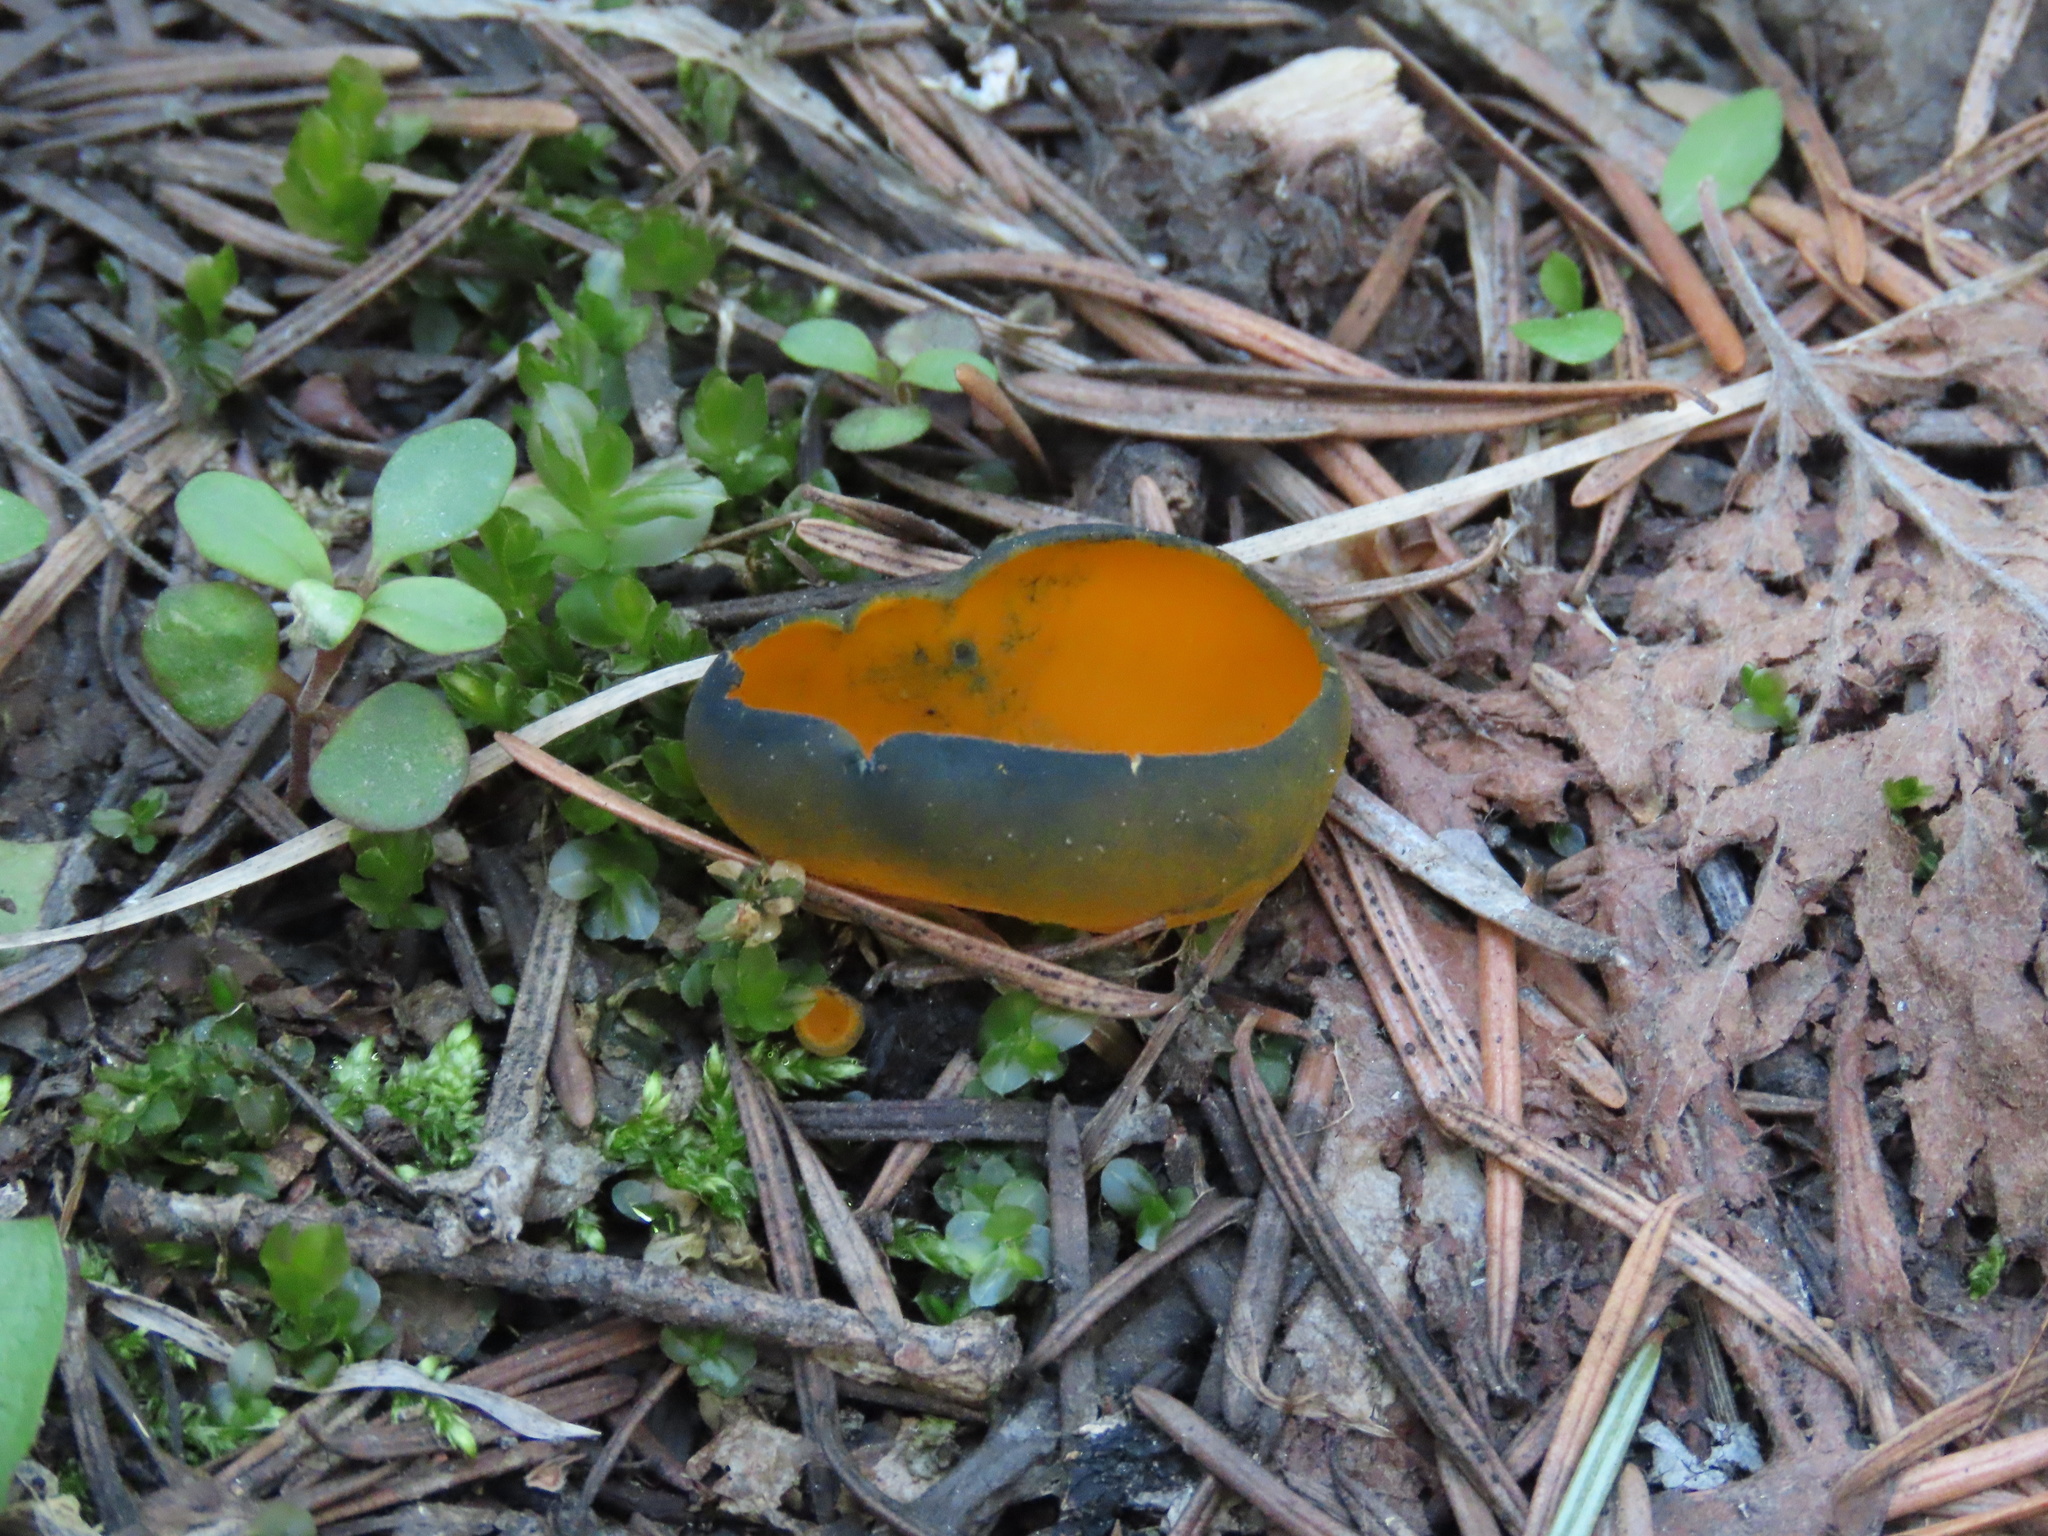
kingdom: Fungi
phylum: Ascomycota
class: Pezizomycetes
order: Pezizales
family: Caloscyphaceae
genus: Caloscypha
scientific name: Caloscypha fulgens
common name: Golden cup
